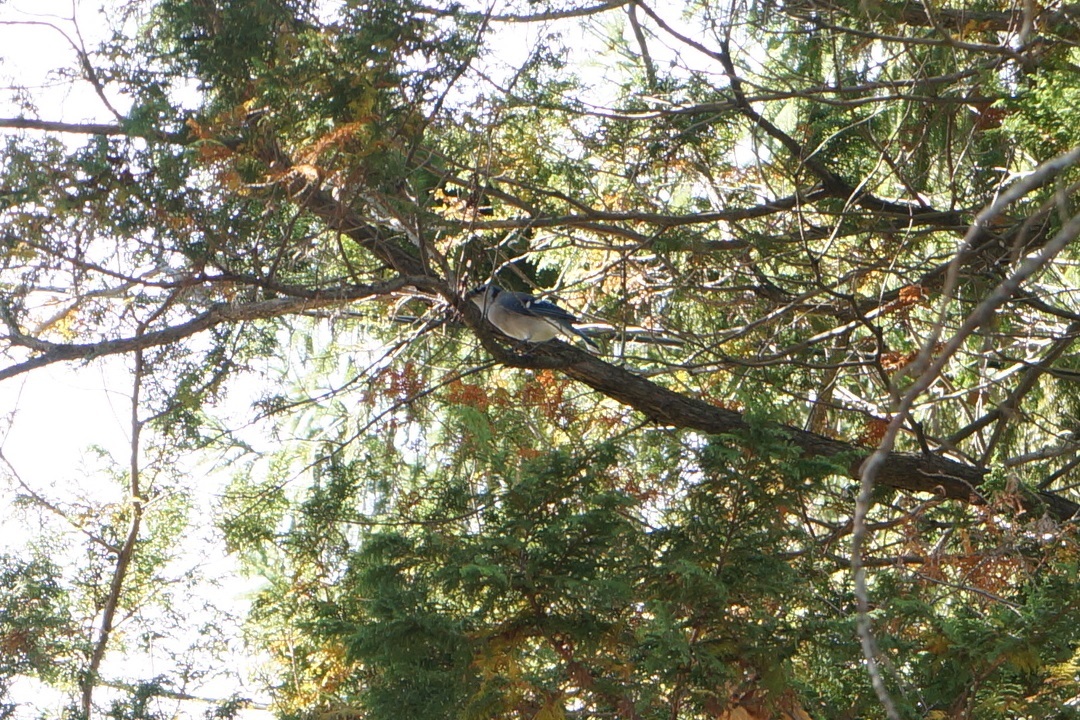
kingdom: Animalia
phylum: Chordata
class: Aves
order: Passeriformes
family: Corvidae
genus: Cyanocitta
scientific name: Cyanocitta cristata
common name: Blue jay
